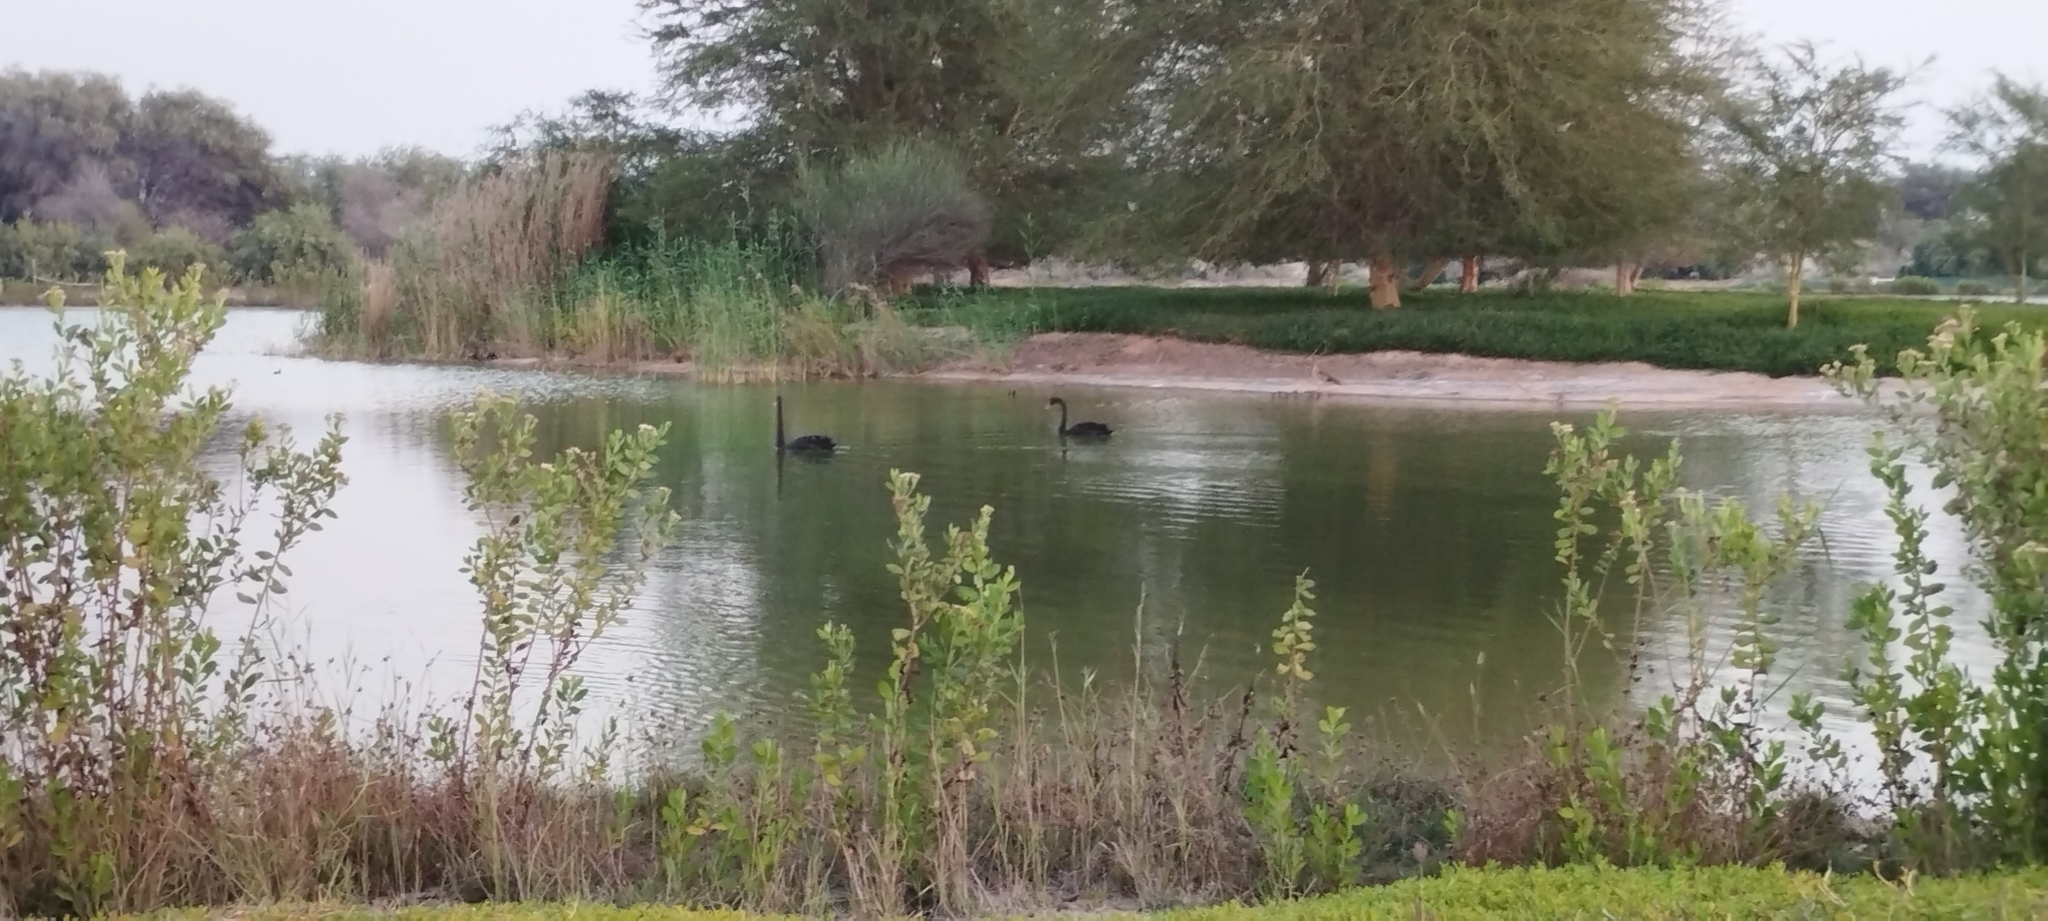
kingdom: Animalia
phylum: Chordata
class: Aves
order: Anseriformes
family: Anatidae
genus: Cygnus
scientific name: Cygnus atratus
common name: Black swan
